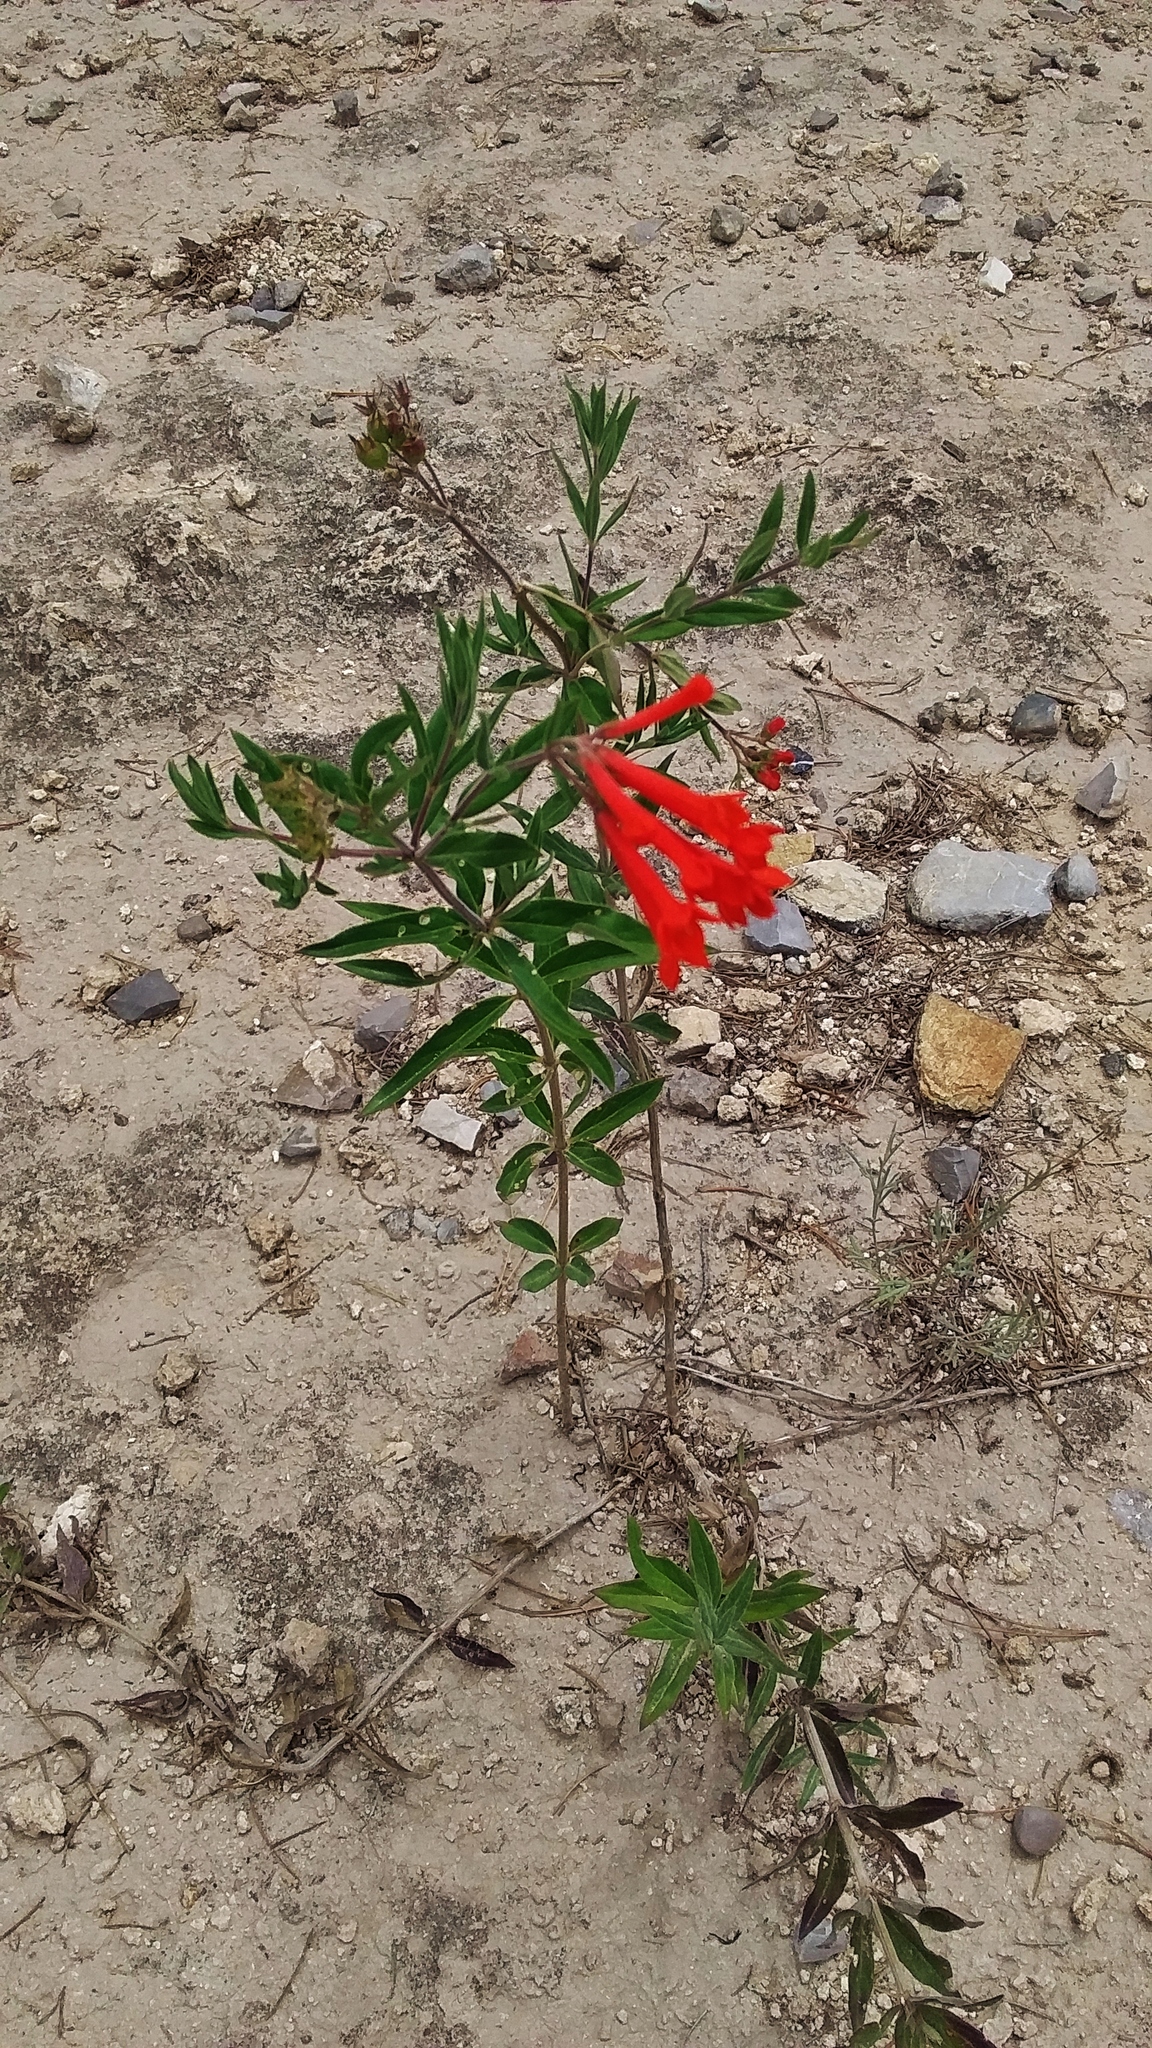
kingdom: Plantae
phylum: Tracheophyta
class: Magnoliopsida
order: Gentianales
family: Rubiaceae
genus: Bouvardia
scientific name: Bouvardia ternifolia
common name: Scarlet bouvardia
